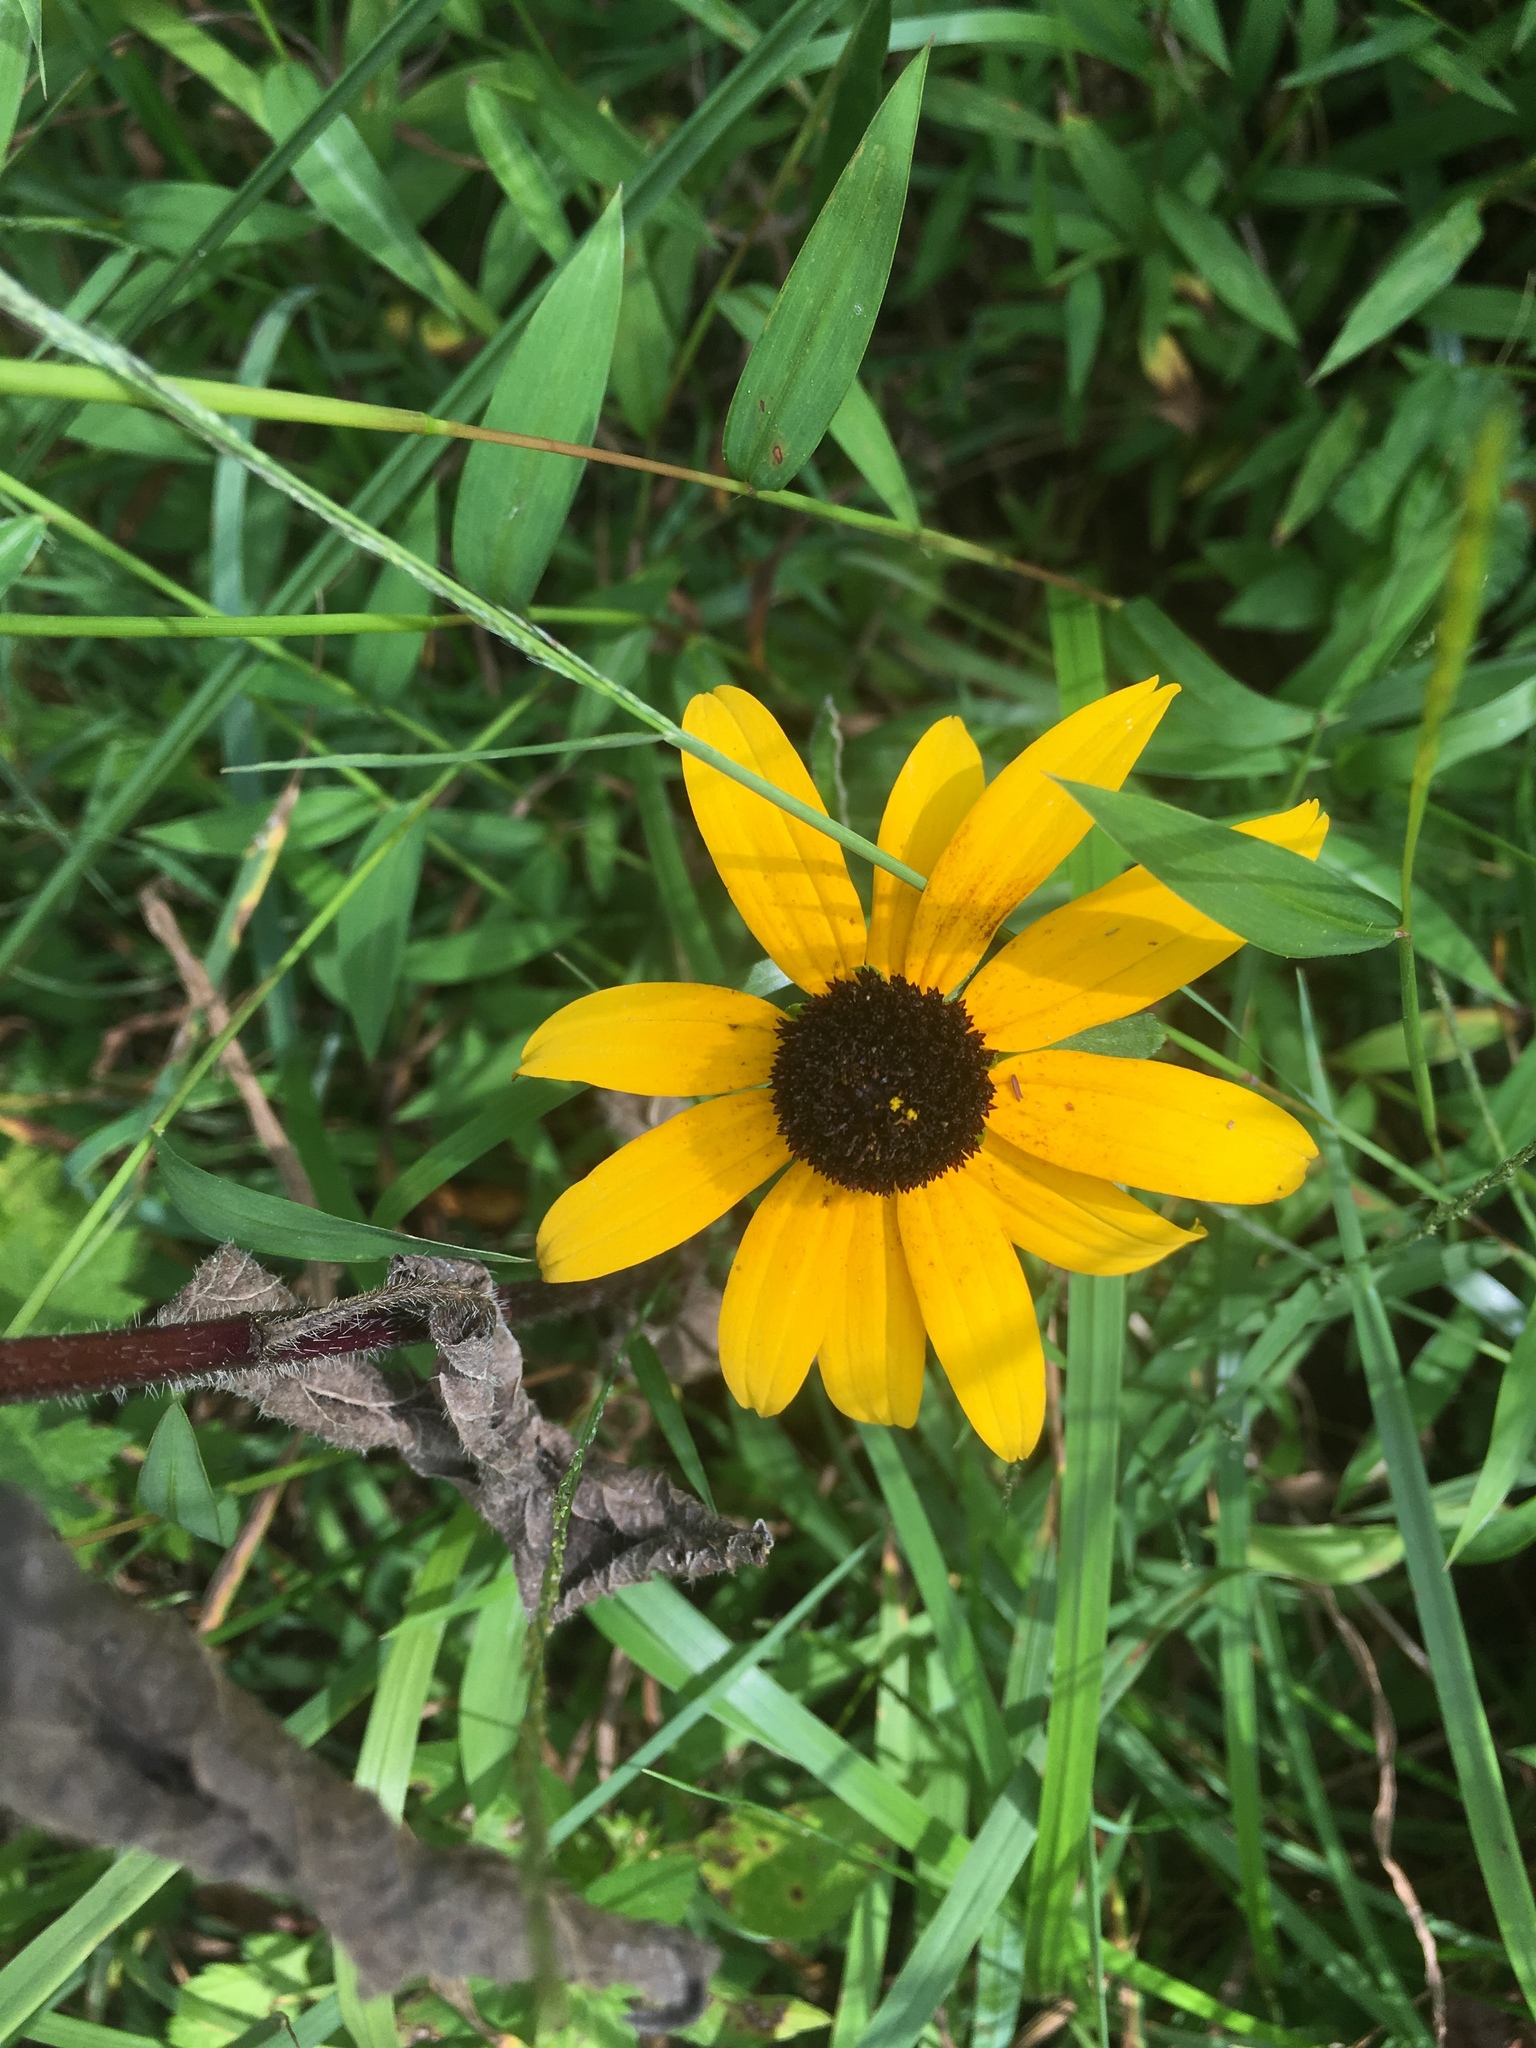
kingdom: Plantae
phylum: Tracheophyta
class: Magnoliopsida
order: Asterales
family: Asteraceae
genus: Rudbeckia
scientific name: Rudbeckia hirta
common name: Black-eyed-susan
